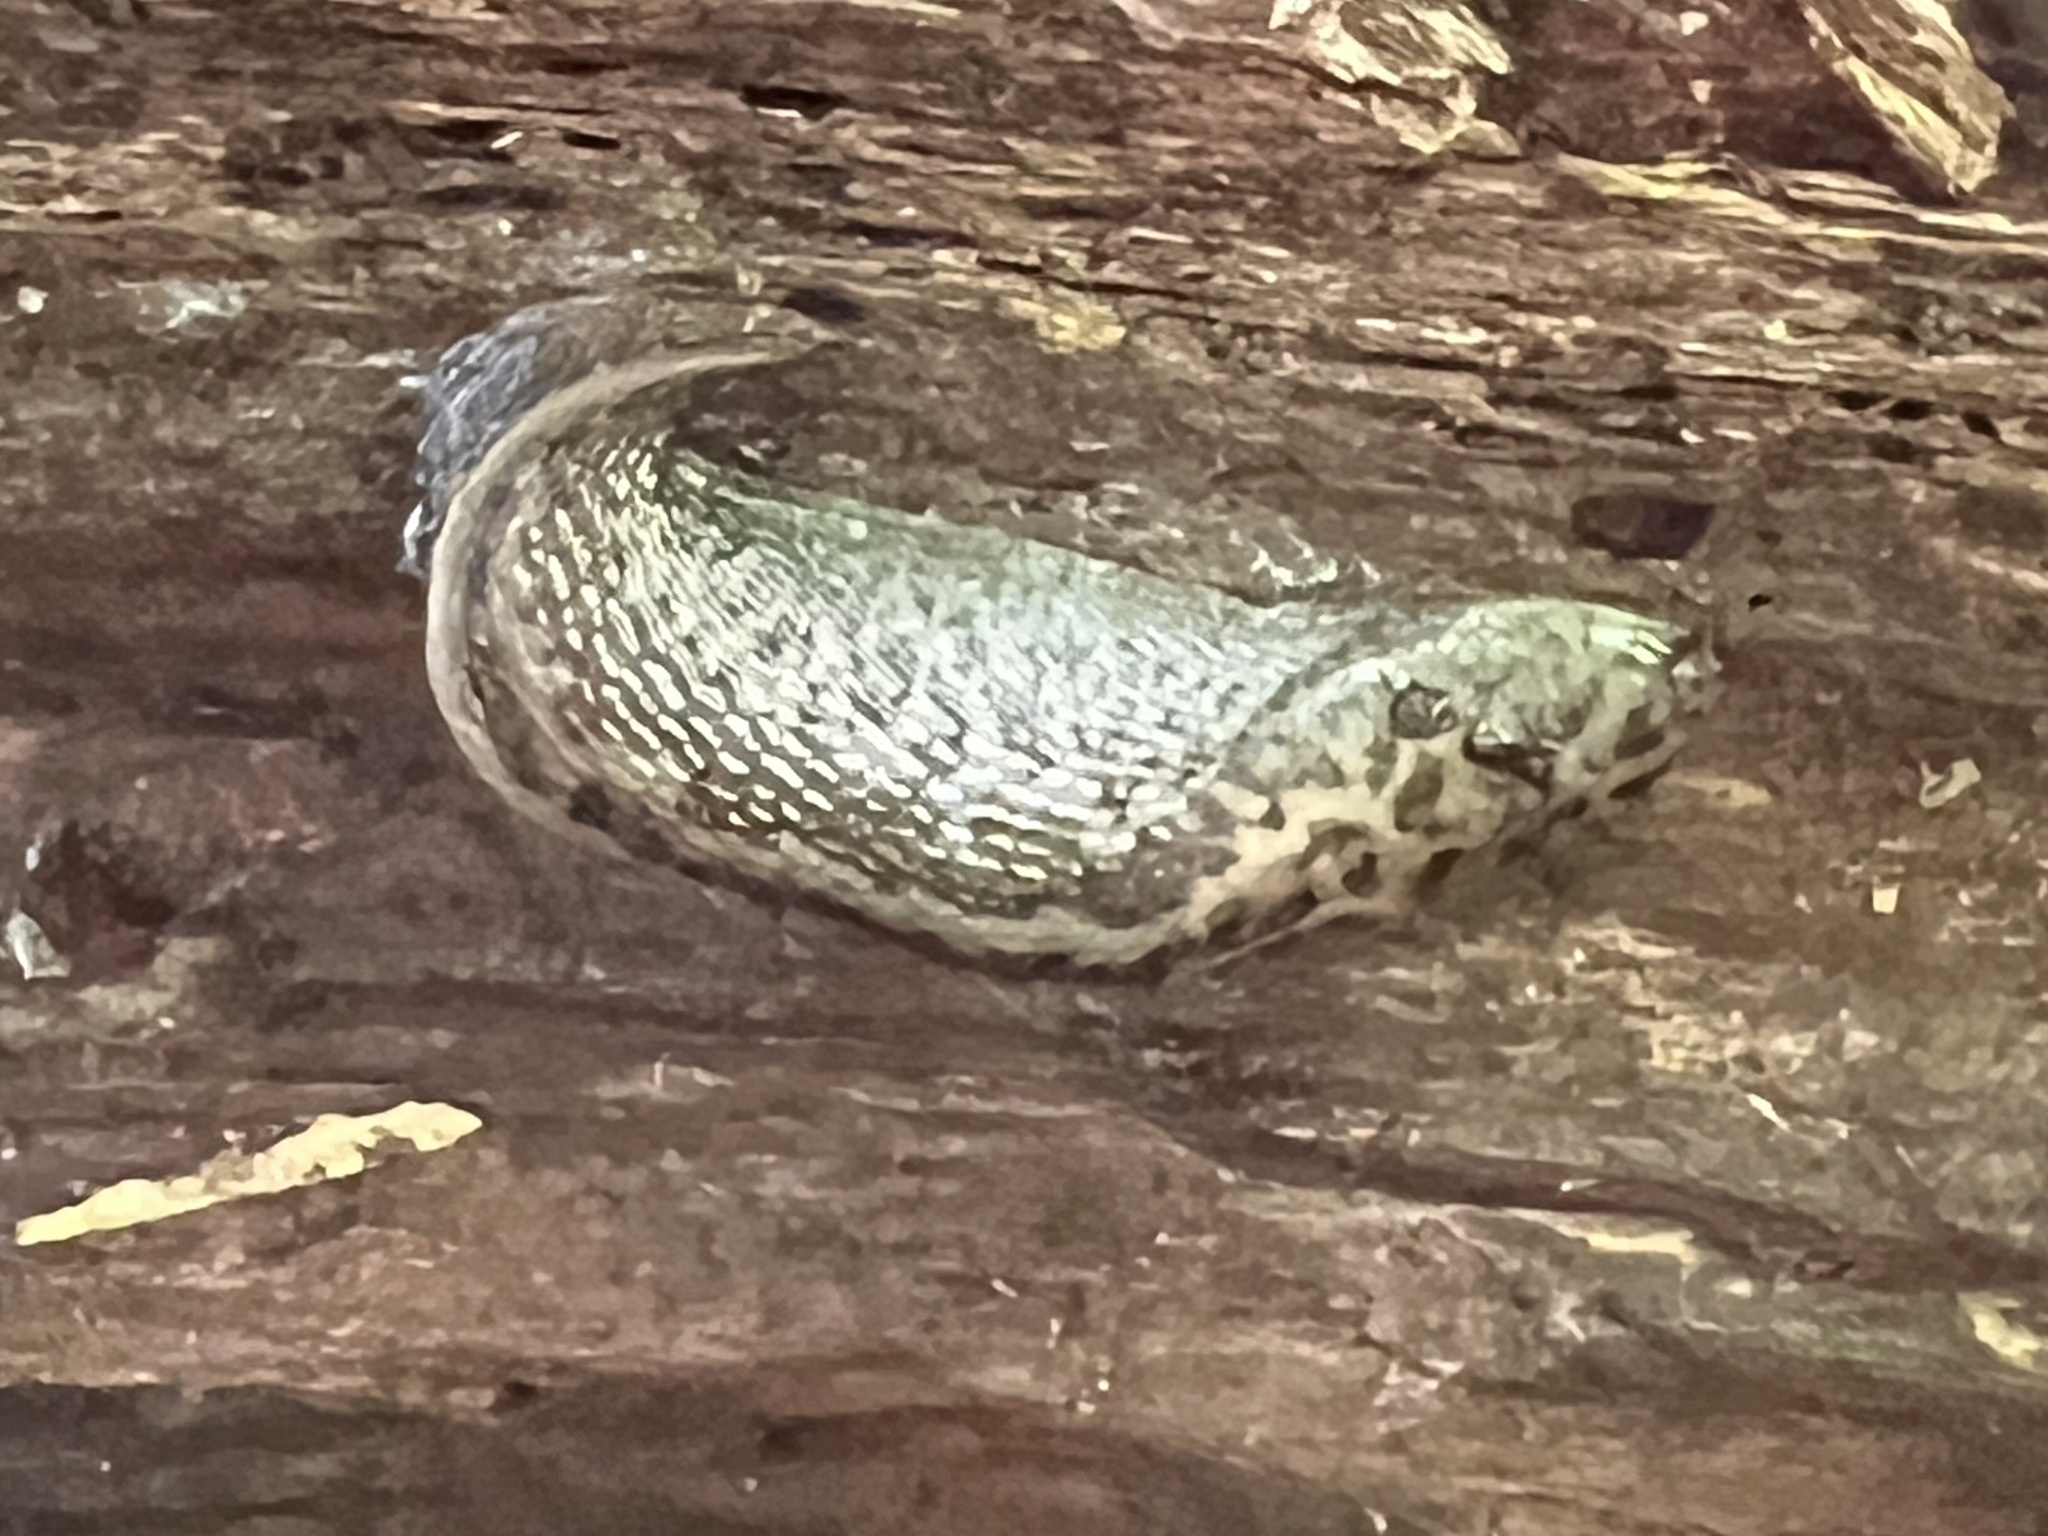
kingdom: Animalia
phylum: Mollusca
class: Gastropoda
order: Stylommatophora
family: Limacidae
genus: Limax
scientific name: Limax maximus
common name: Great grey slug
